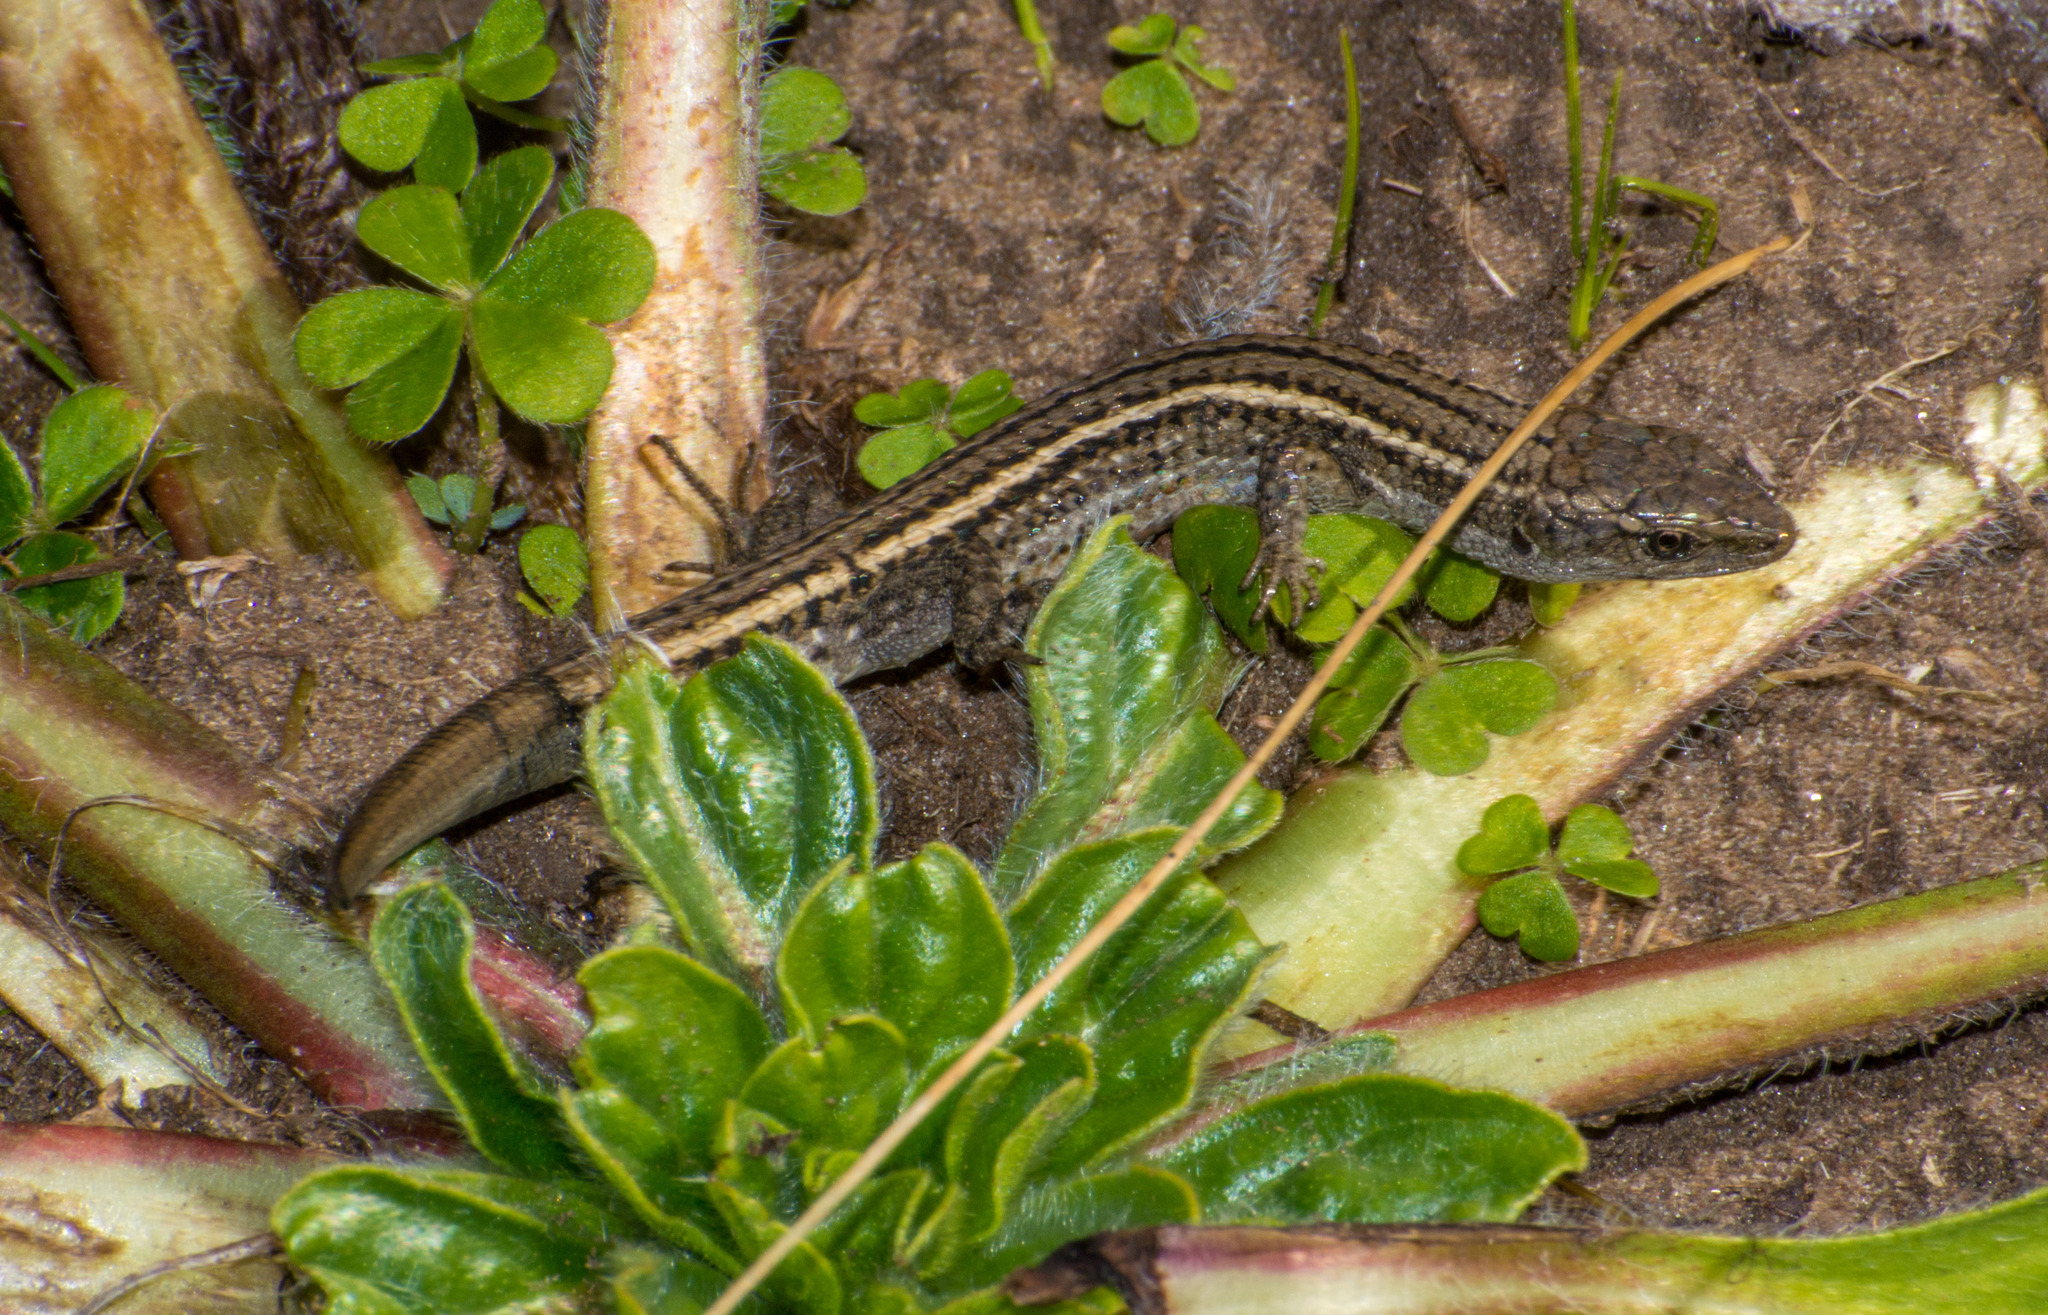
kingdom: Animalia
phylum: Chordata
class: Squamata
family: Gymnophthalmidae
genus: Cercosaura
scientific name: Cercosaura schreibersii
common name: Schreibers' many-fingered teiid
